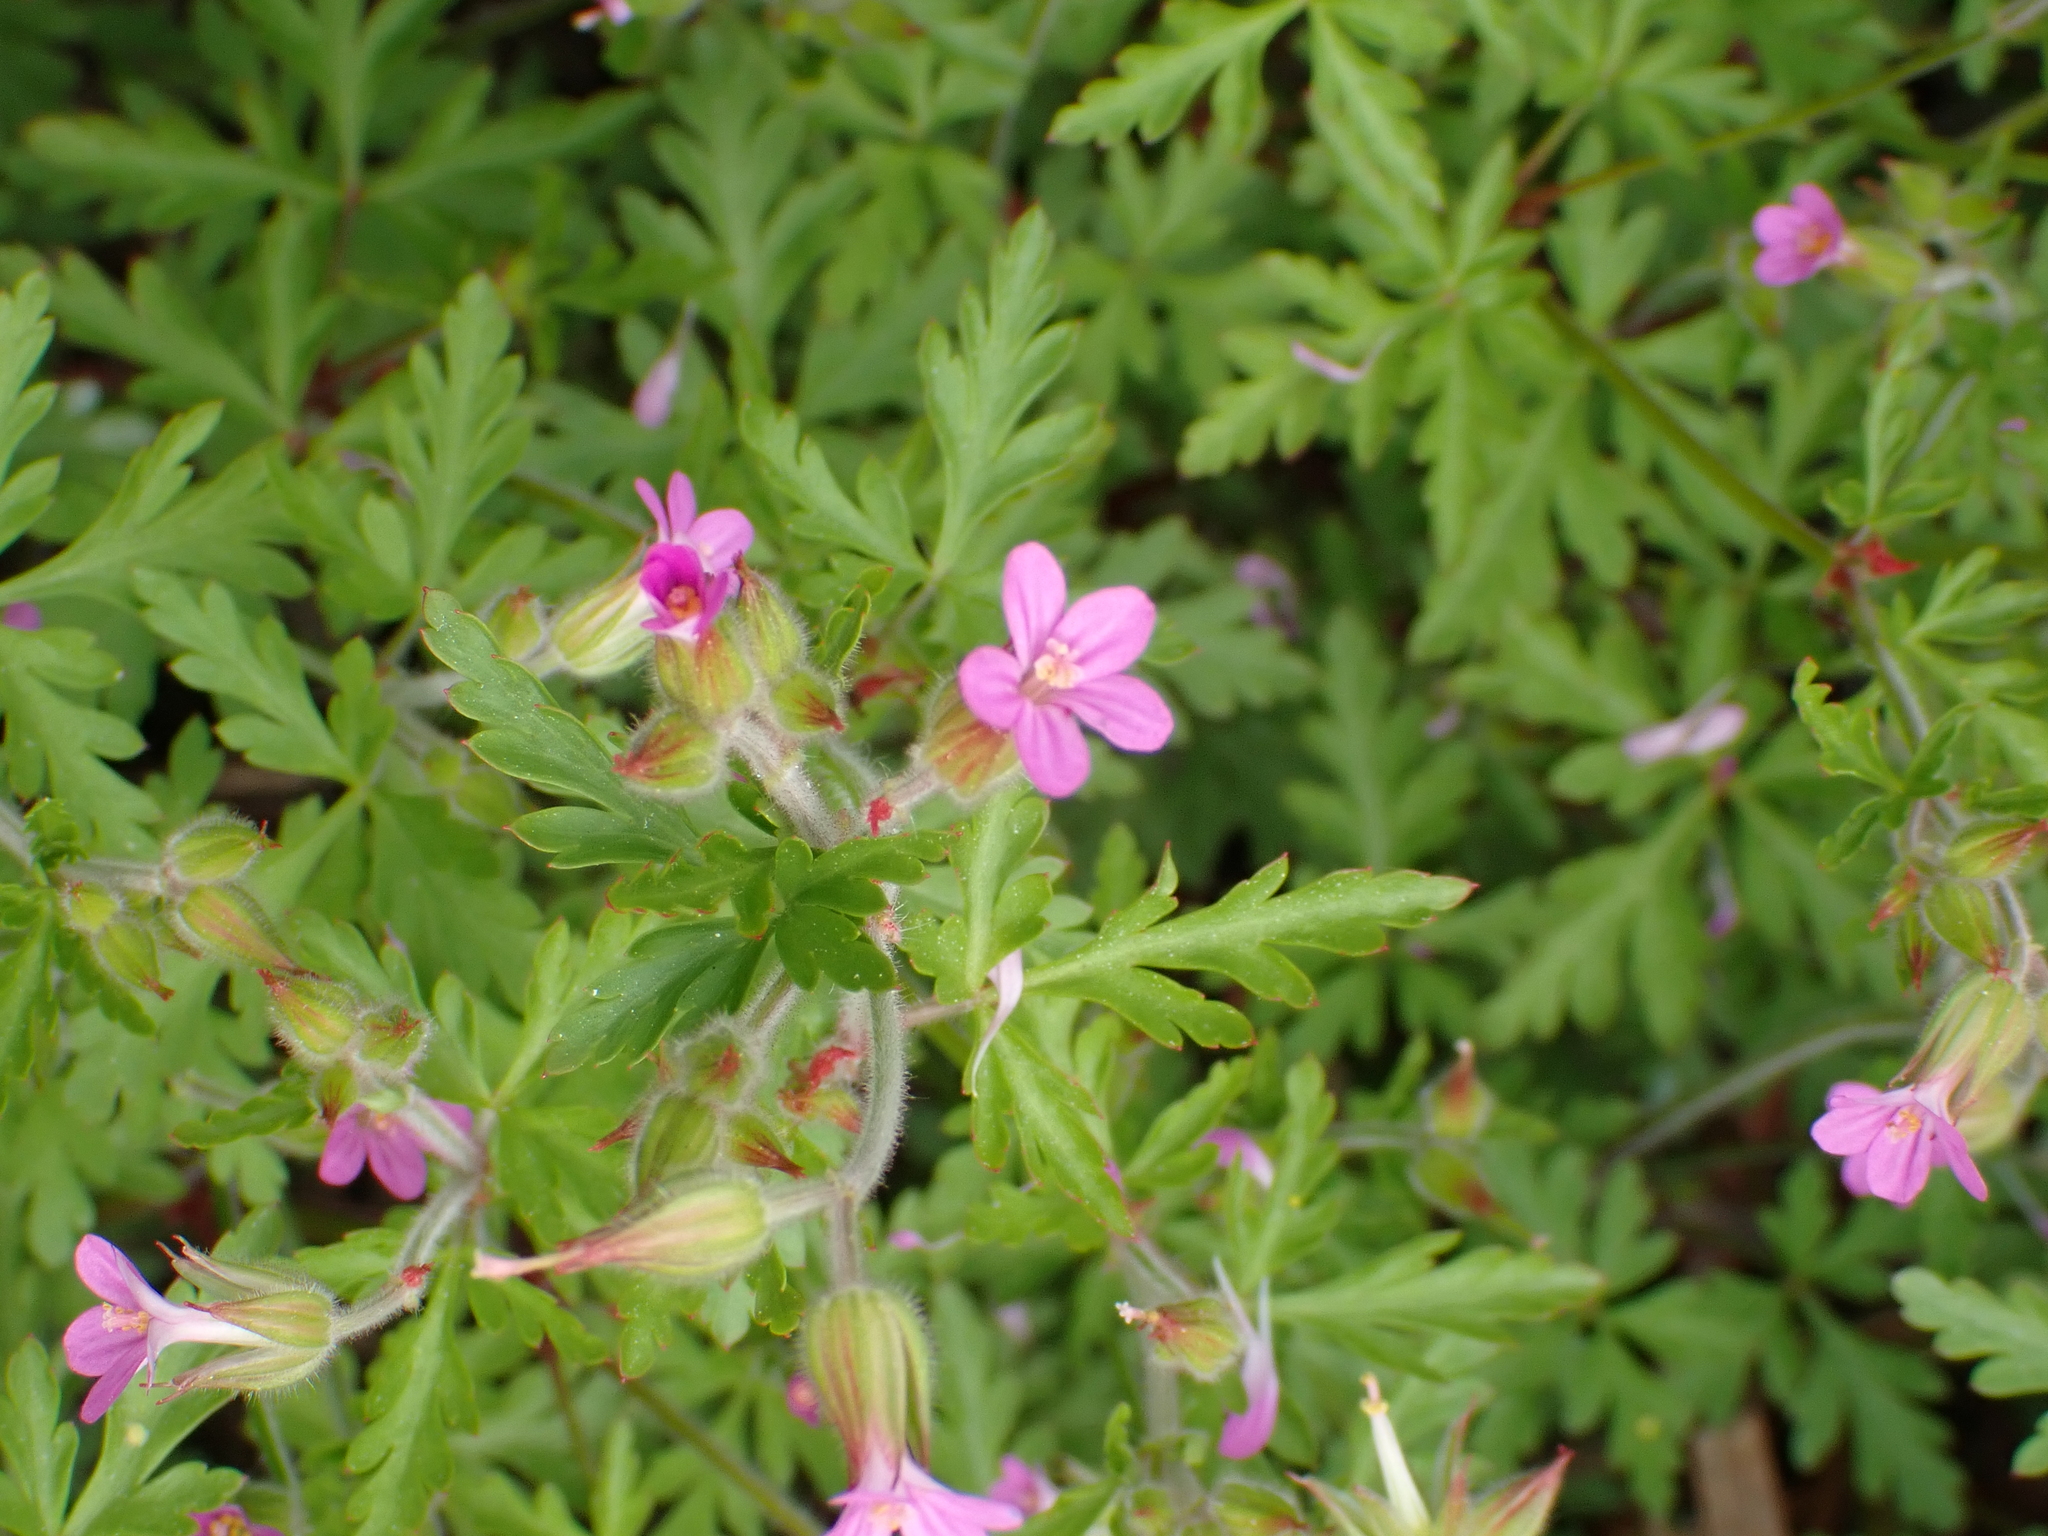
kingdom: Plantae
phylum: Tracheophyta
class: Magnoliopsida
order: Geraniales
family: Geraniaceae
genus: Geranium
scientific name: Geranium purpureum
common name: Little-robin
